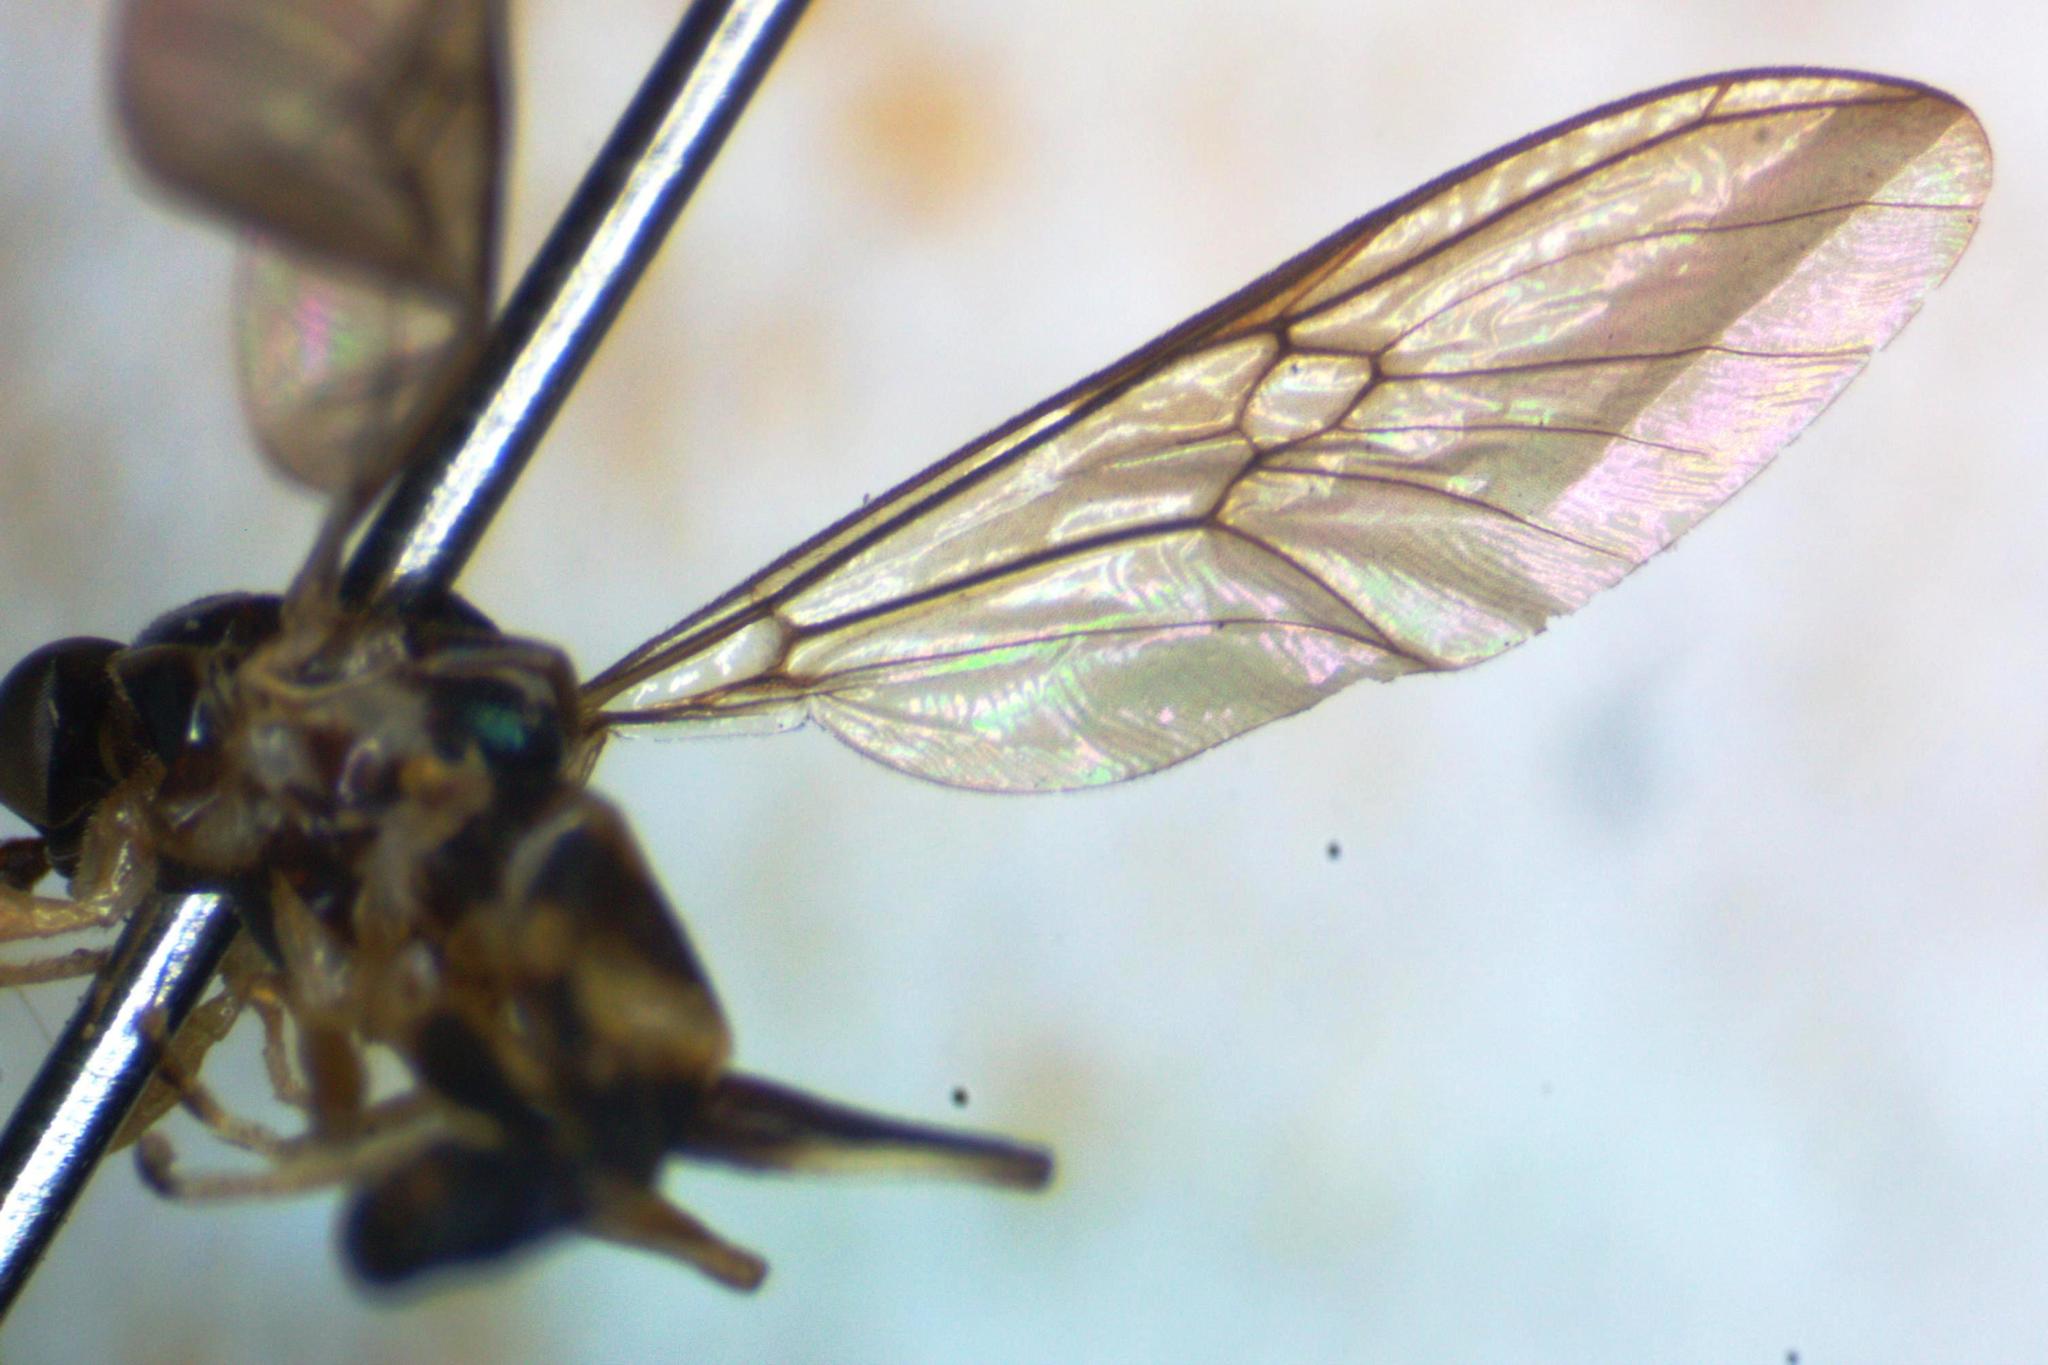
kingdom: Animalia
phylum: Arthropoda
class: Insecta
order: Diptera
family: Stratiomyidae
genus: Merosargus
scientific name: Merosargus cingulatus
